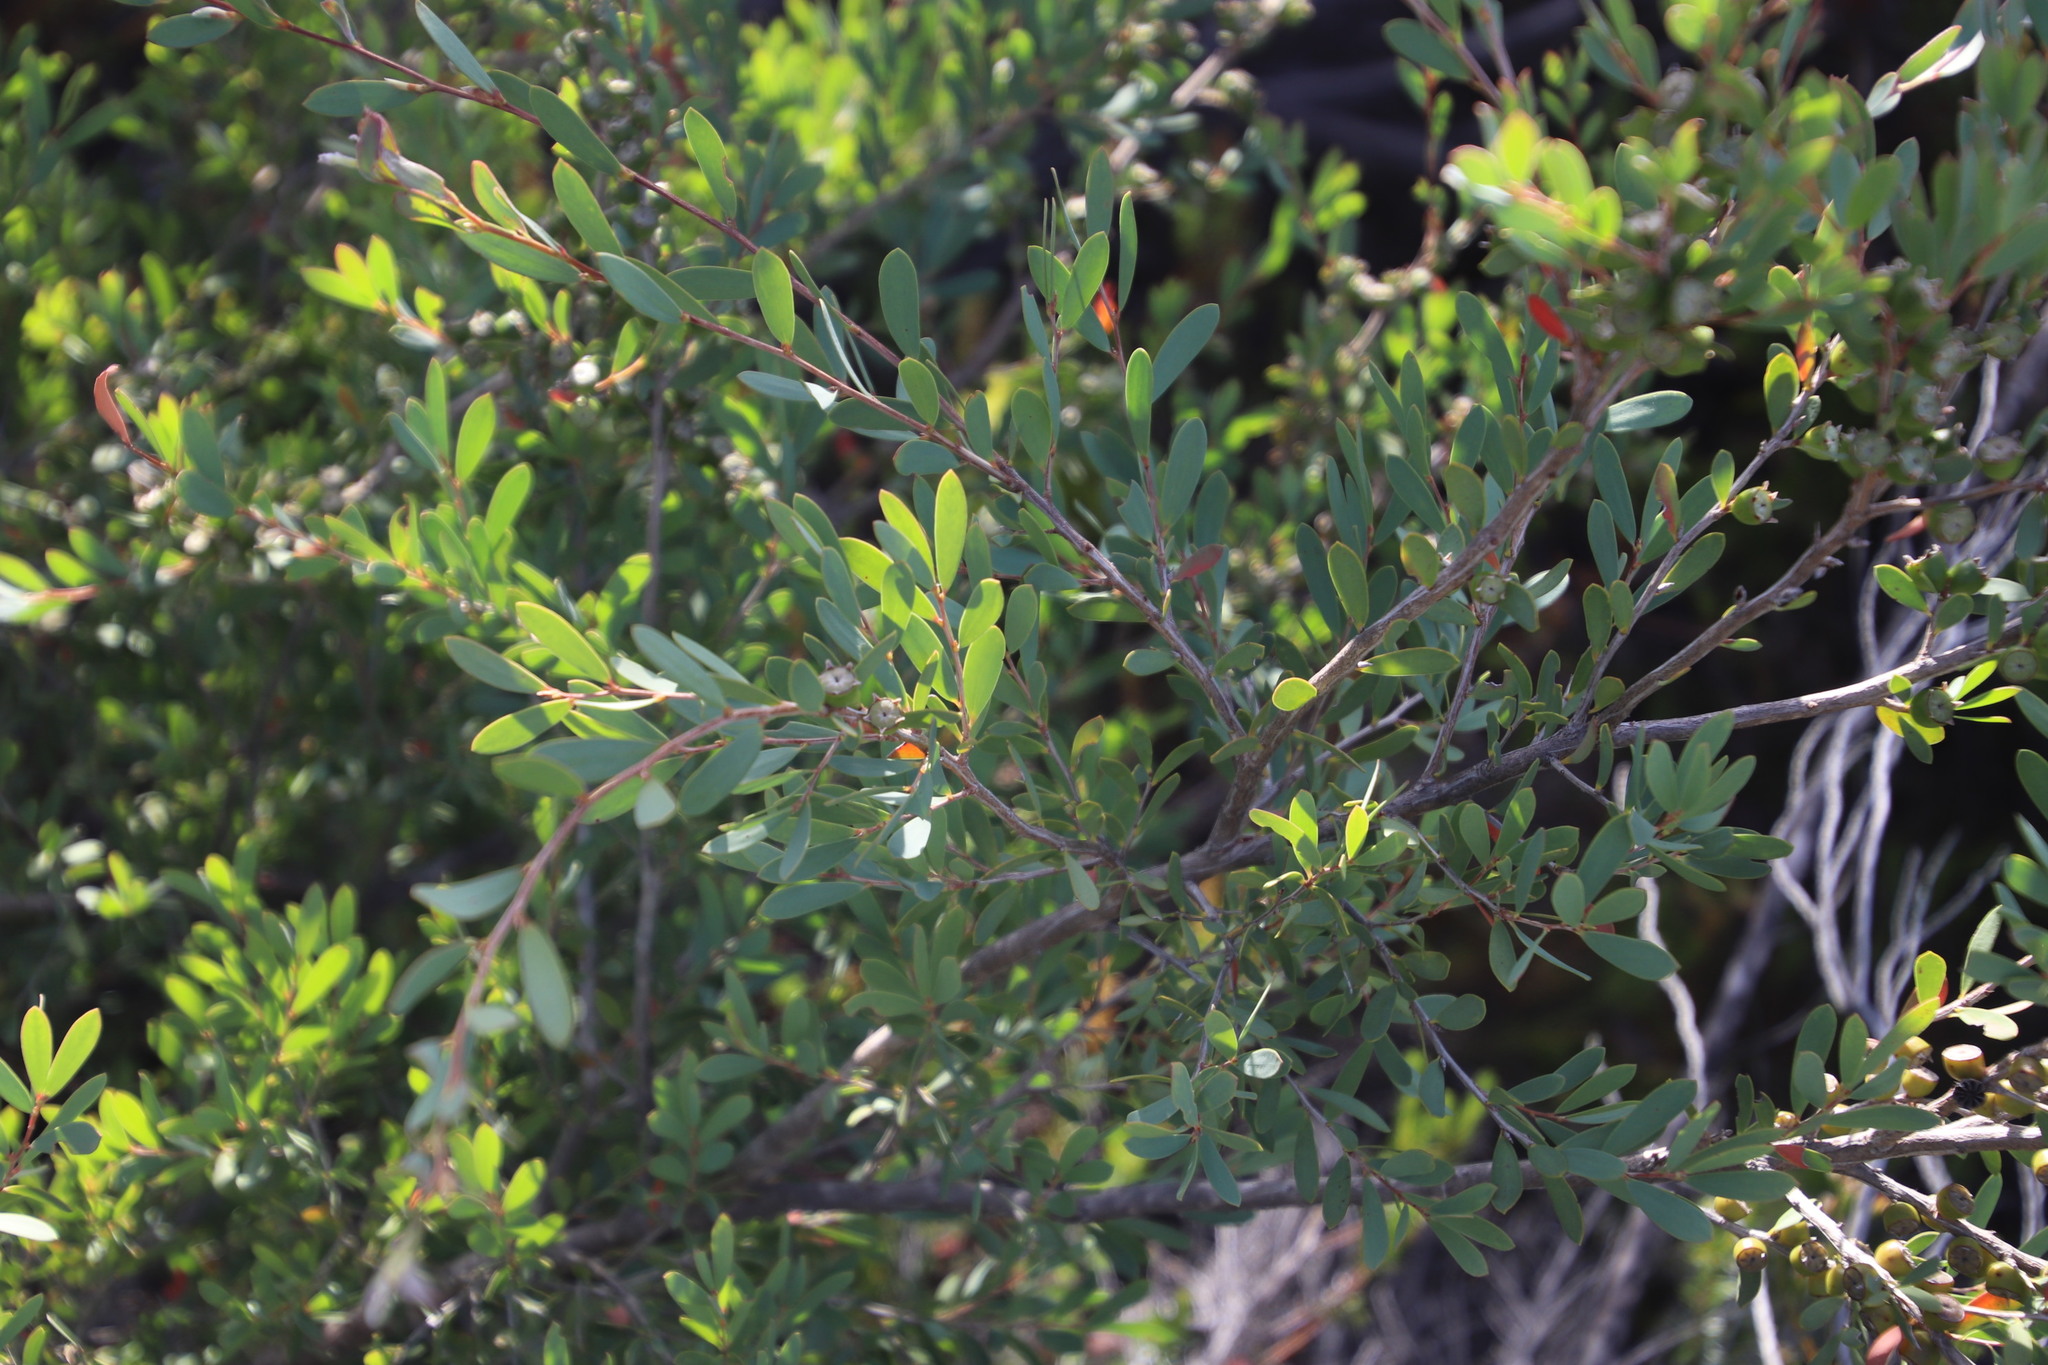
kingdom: Plantae
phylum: Tracheophyta
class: Magnoliopsida
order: Myrtales
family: Myrtaceae
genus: Leptospermum
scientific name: Leptospermum laevigatum
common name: Australian teatree
